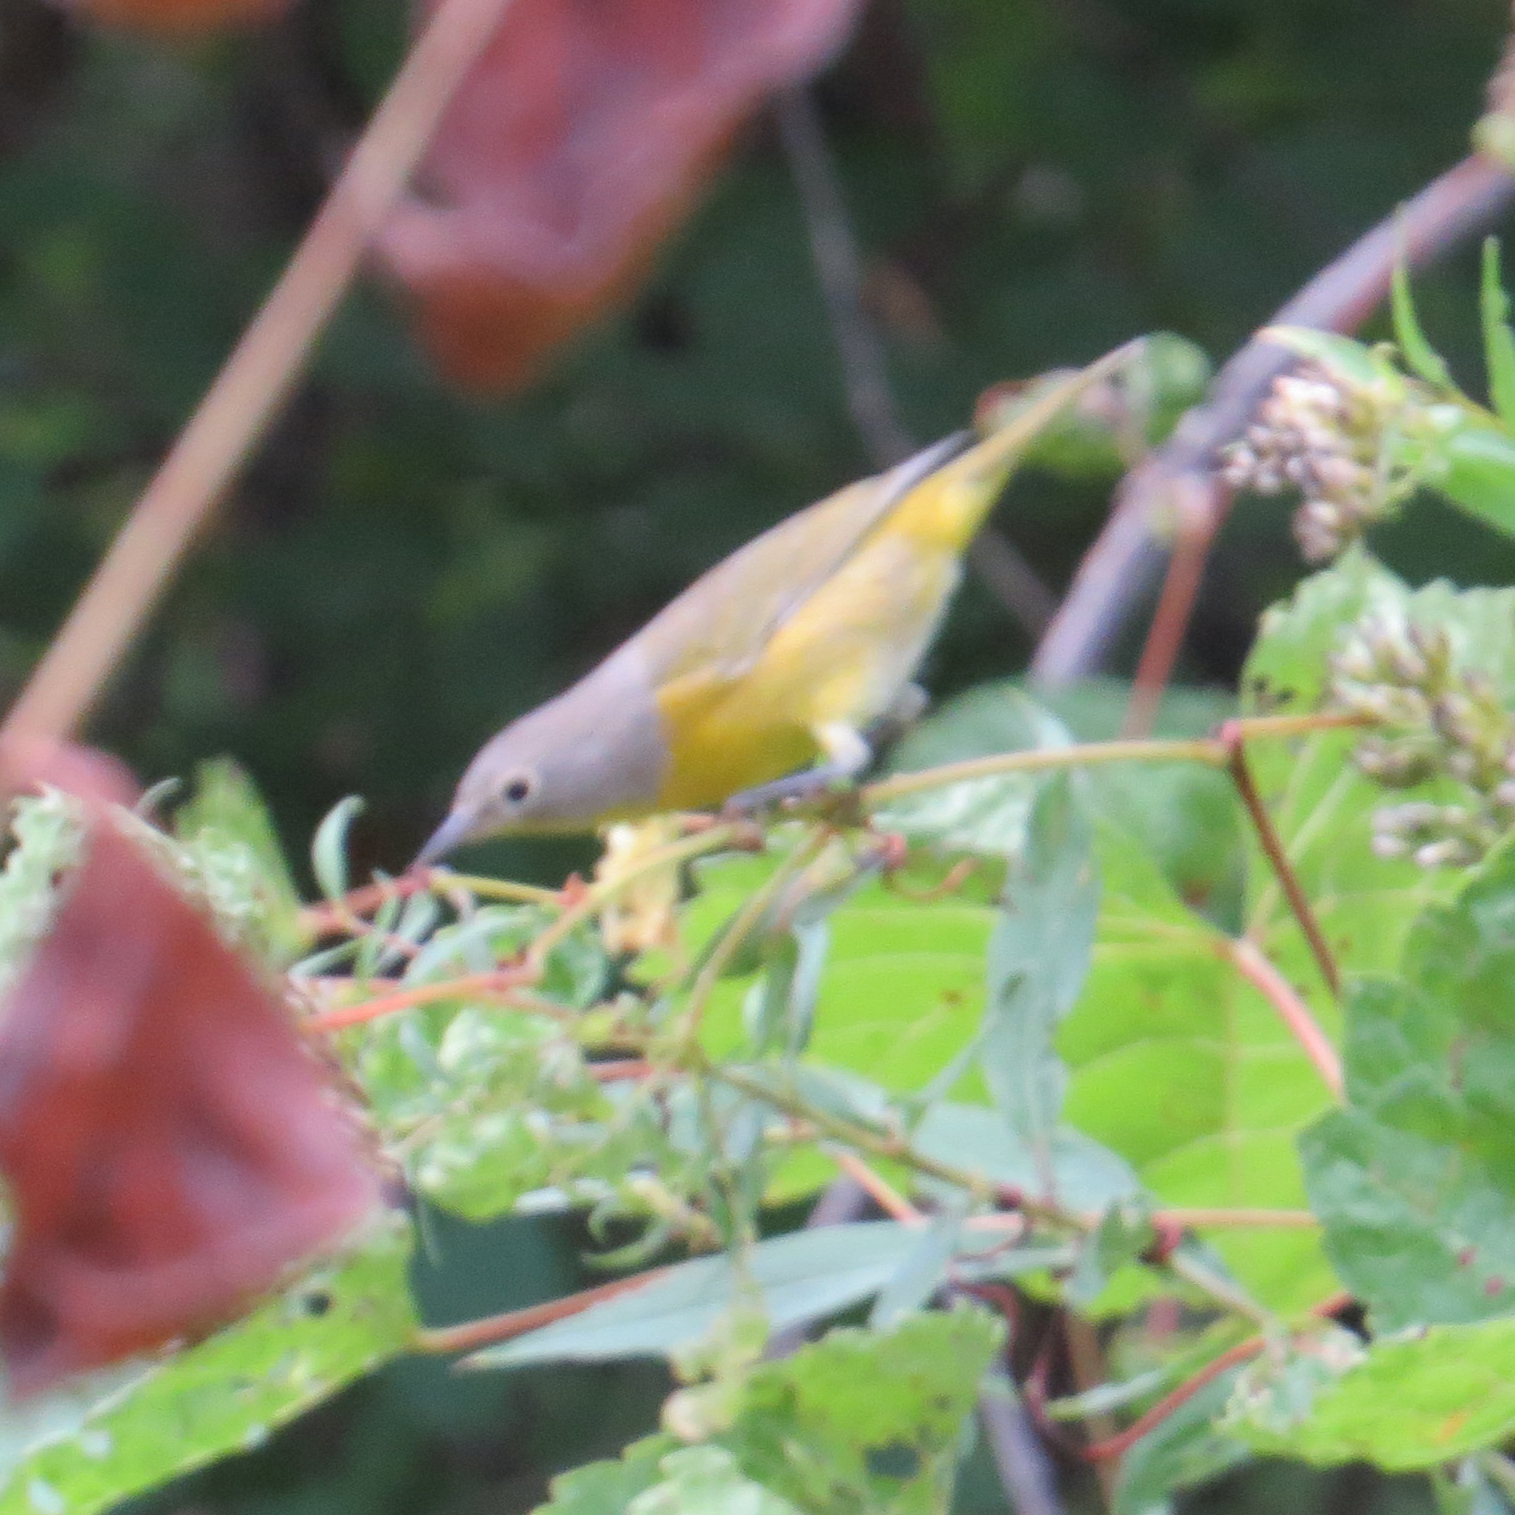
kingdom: Animalia
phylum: Chordata
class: Aves
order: Passeriformes
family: Parulidae
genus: Leiothlypis
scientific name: Leiothlypis ruficapilla
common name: Nashville warbler
